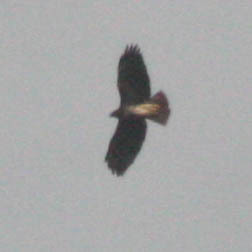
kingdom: Animalia
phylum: Chordata
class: Aves
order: Accipitriformes
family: Accipitridae
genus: Buteo
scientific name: Buteo jamaicensis
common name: Red-tailed hawk
